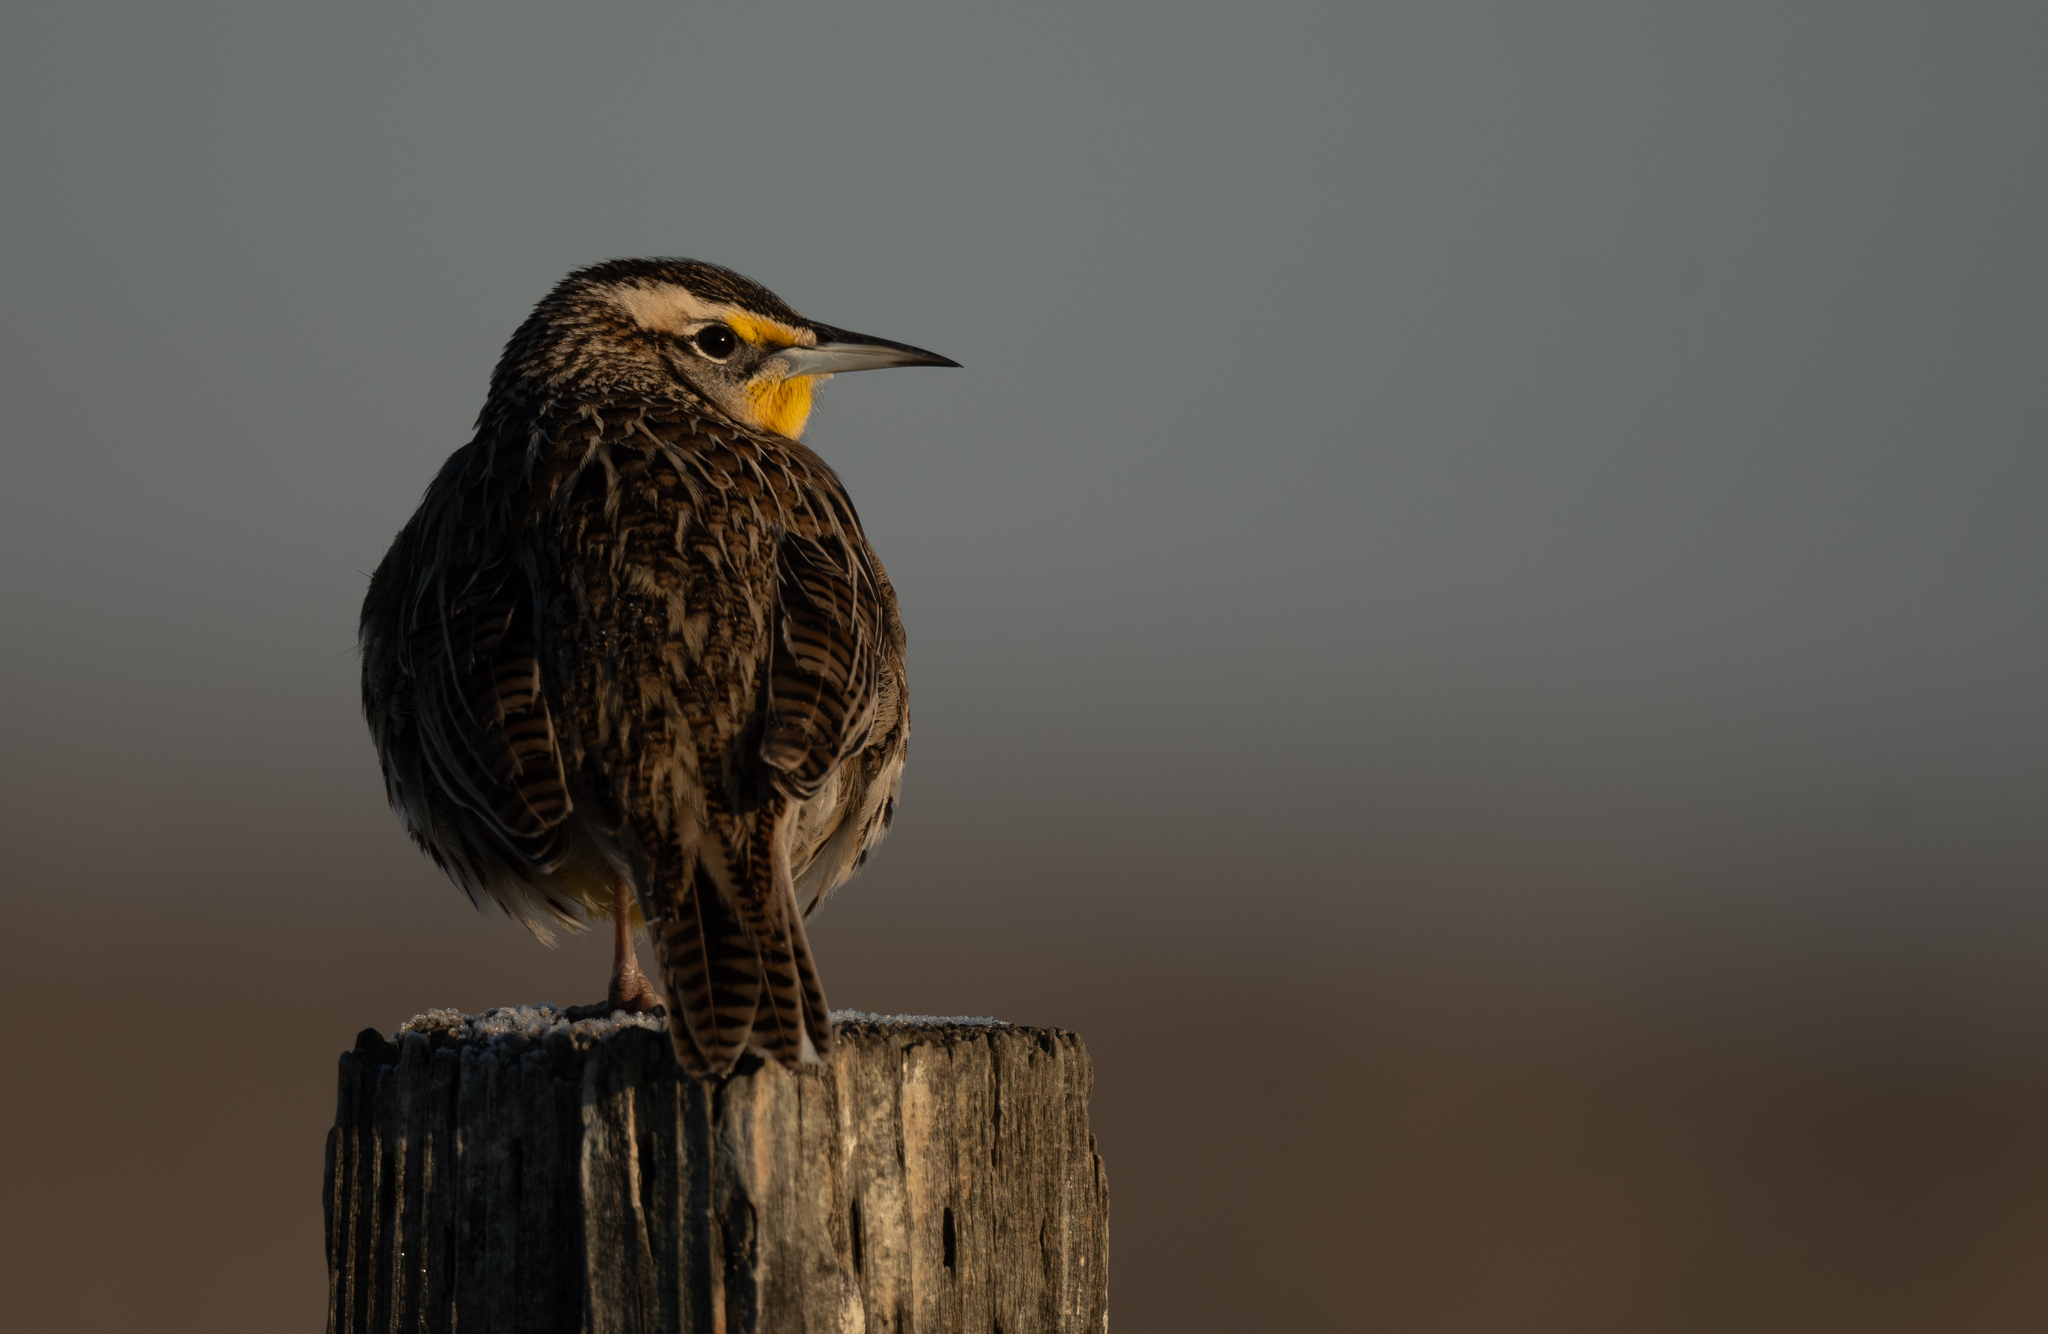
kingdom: Animalia
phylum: Chordata
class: Aves
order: Passeriformes
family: Icteridae
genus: Sturnella
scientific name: Sturnella neglecta
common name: Western meadowlark
